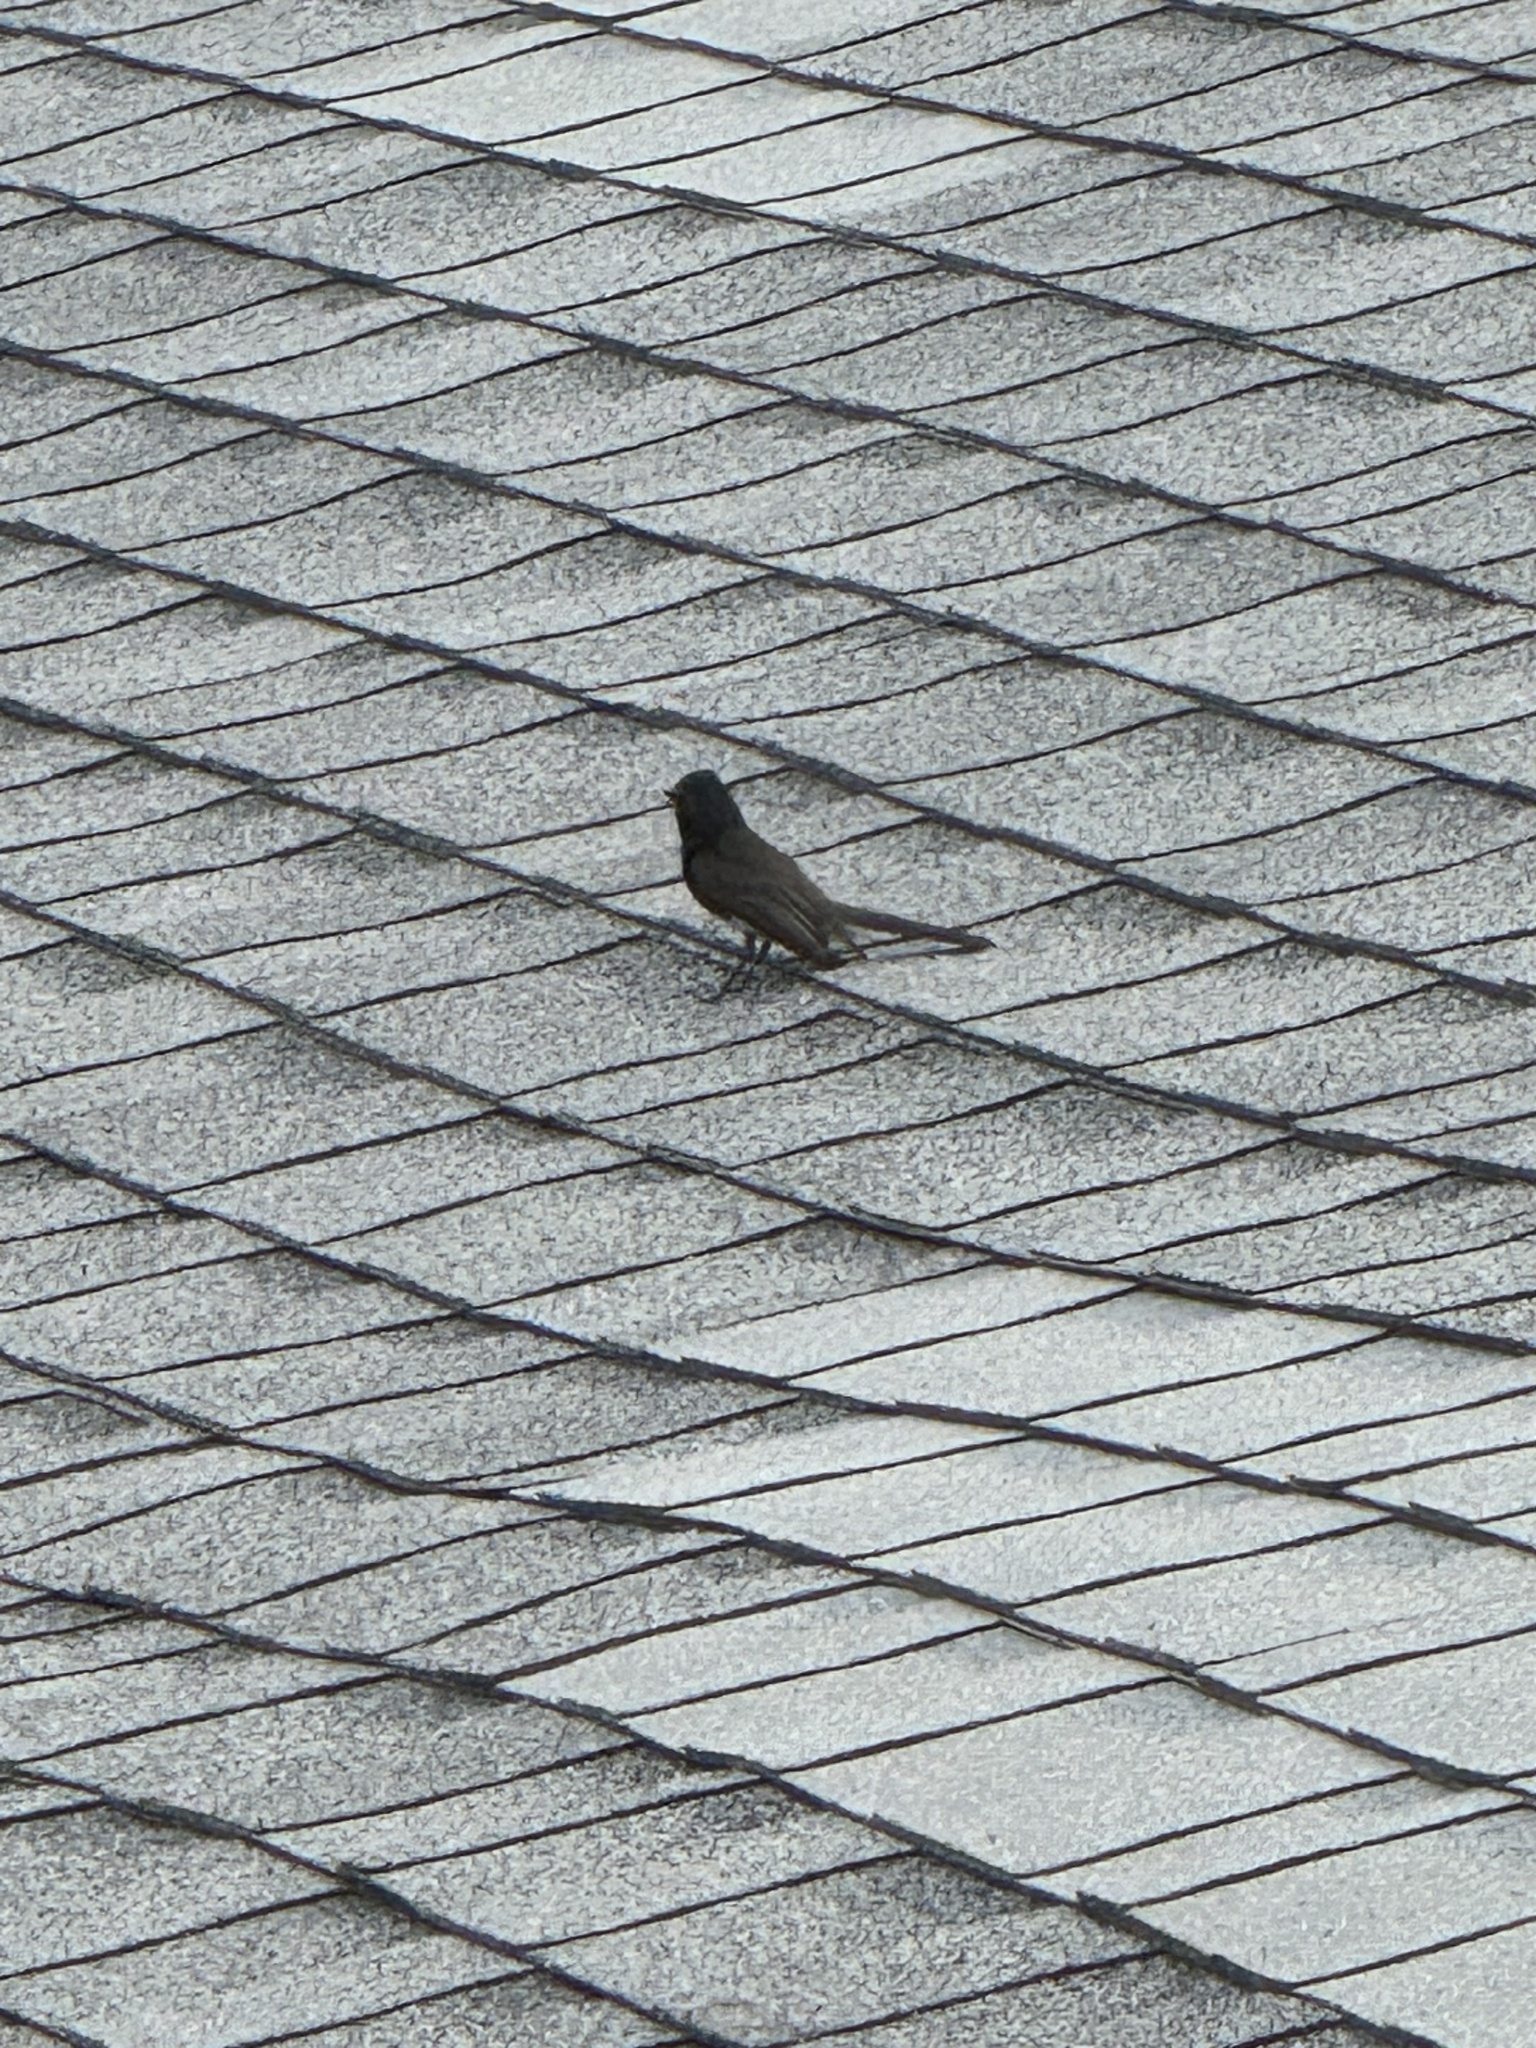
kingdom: Animalia
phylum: Chordata
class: Aves
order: Passeriformes
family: Tyrannidae
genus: Sayornis
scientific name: Sayornis nigricans
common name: Black phoebe
